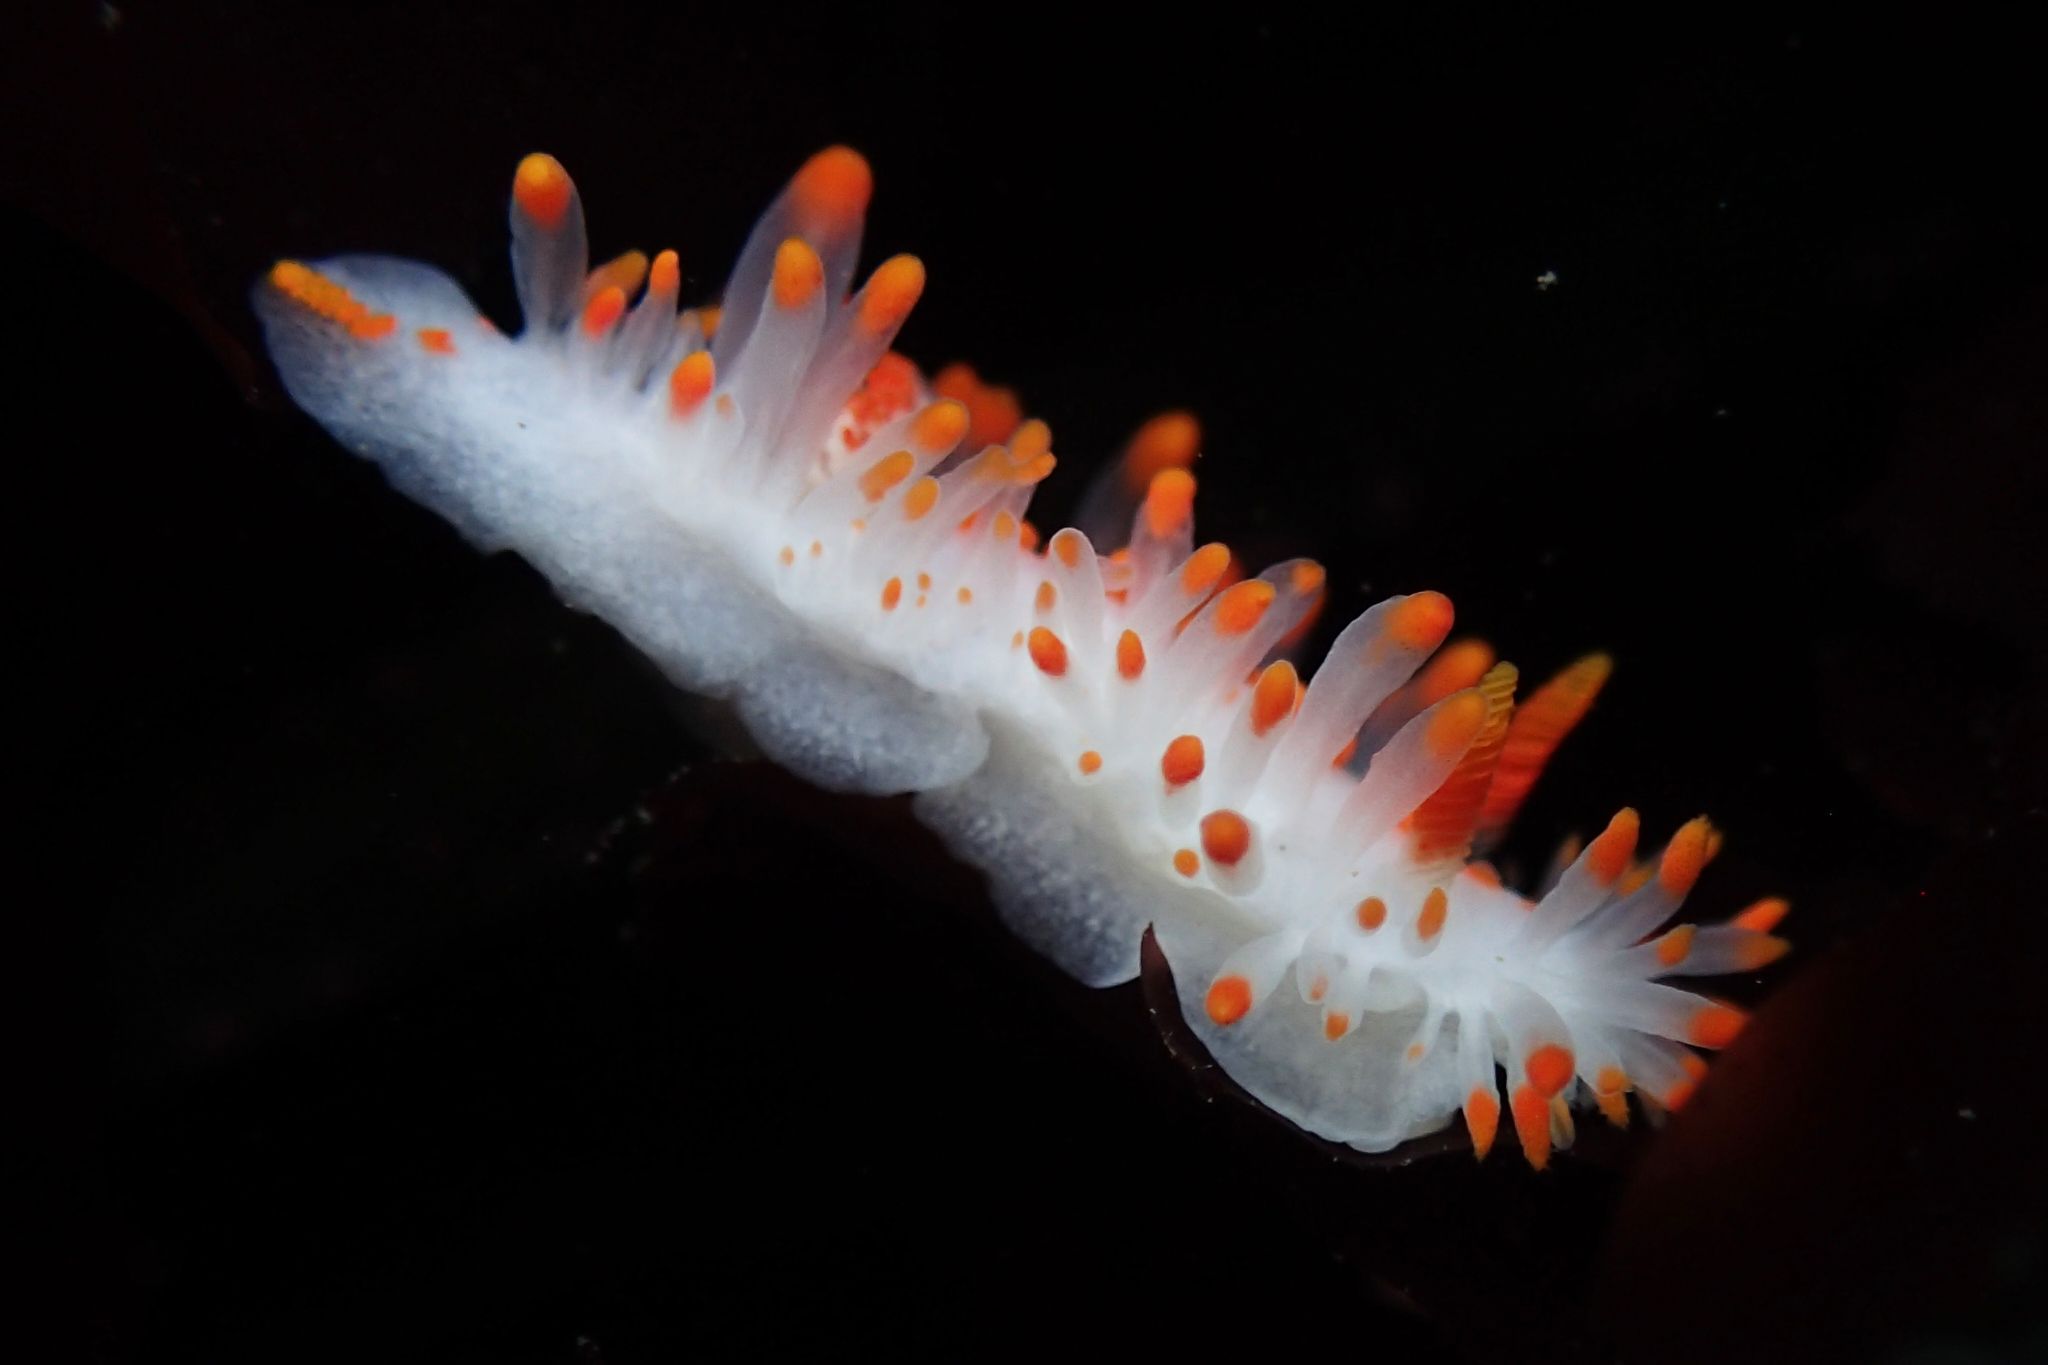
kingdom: Animalia
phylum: Mollusca
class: Gastropoda
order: Nudibranchia
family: Polyceridae
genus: Limacia
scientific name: Limacia mcdonaldi
